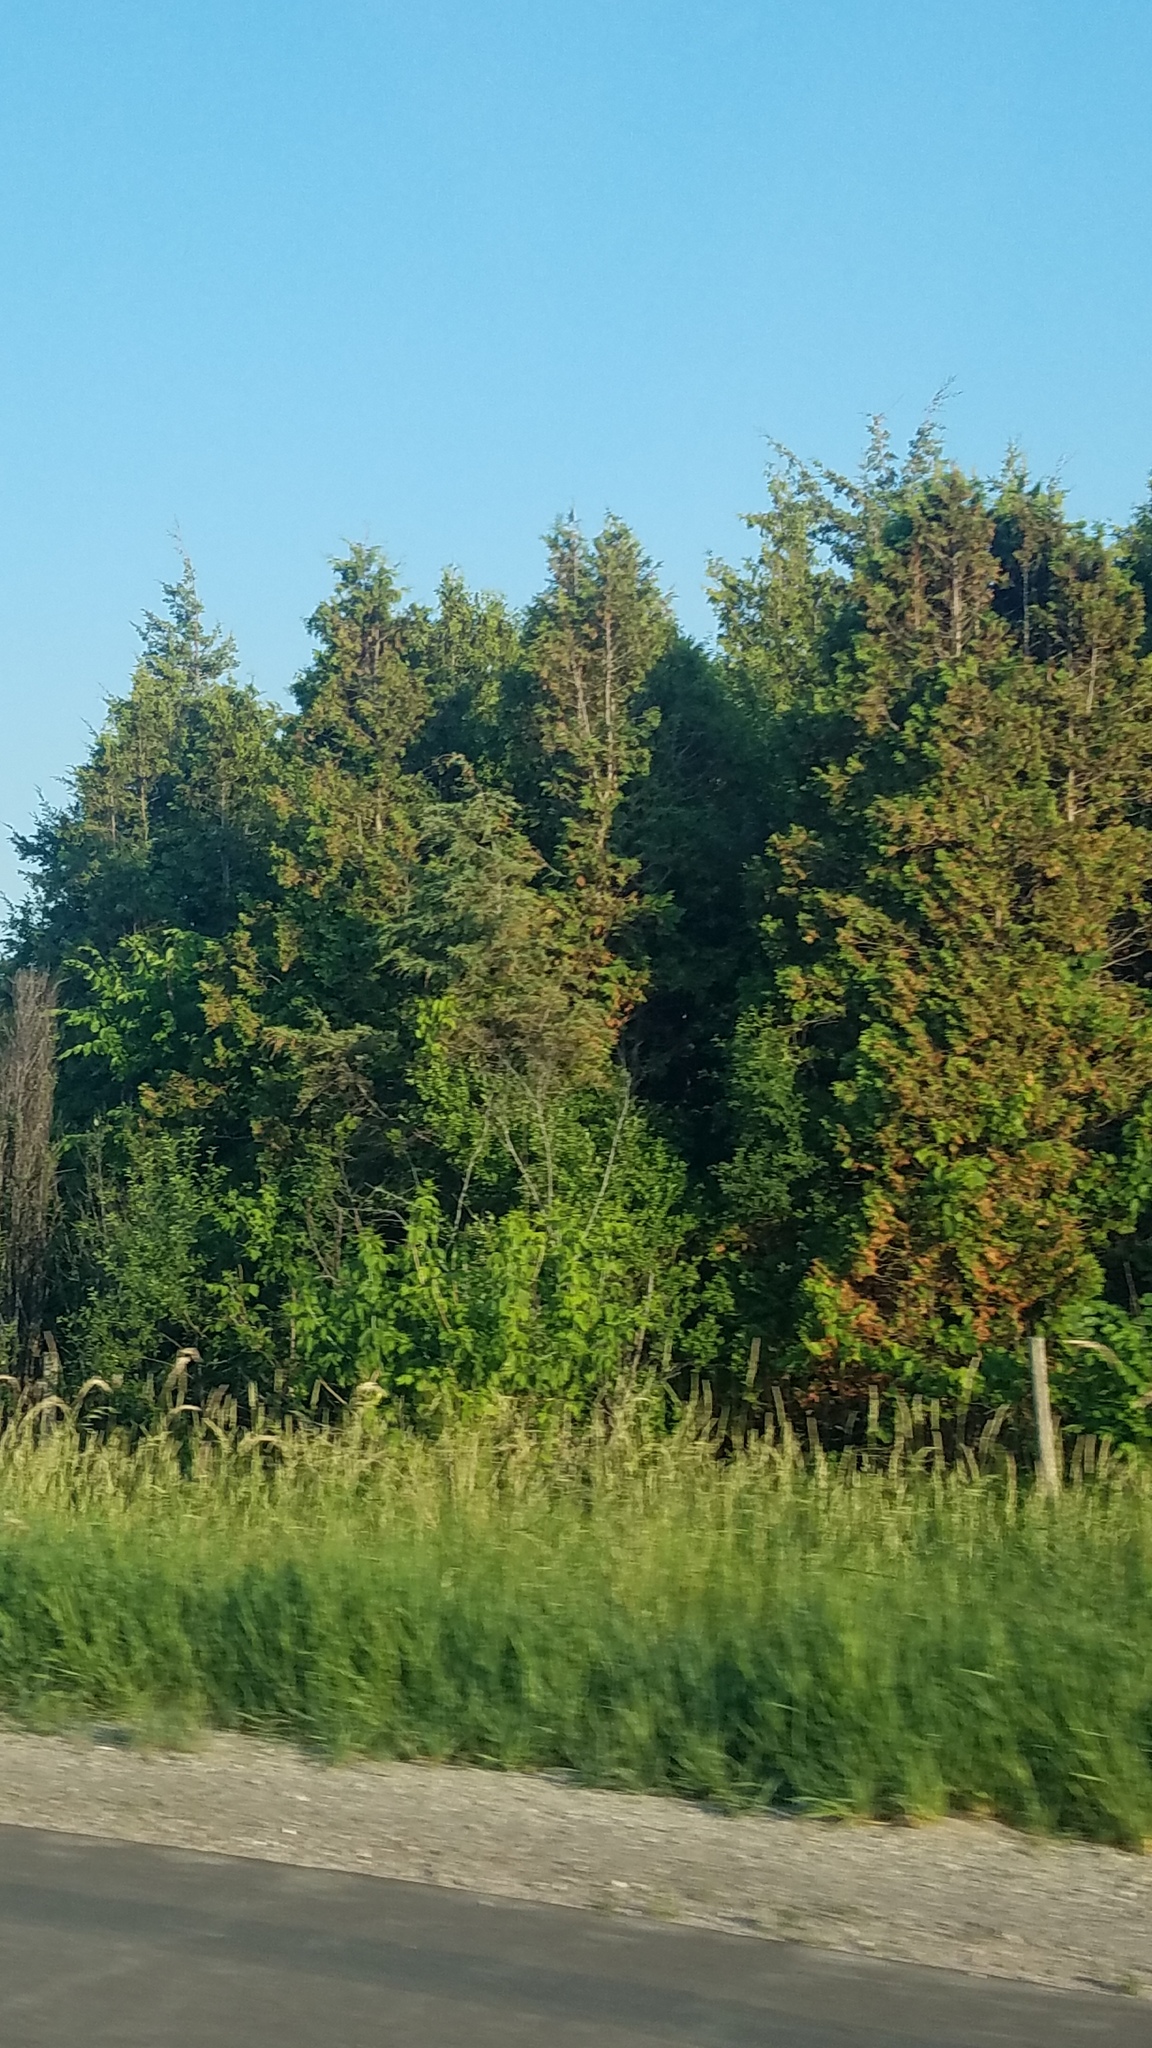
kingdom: Plantae
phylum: Tracheophyta
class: Pinopsida
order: Pinales
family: Cupressaceae
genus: Juniperus
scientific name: Juniperus virginiana
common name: Red juniper
